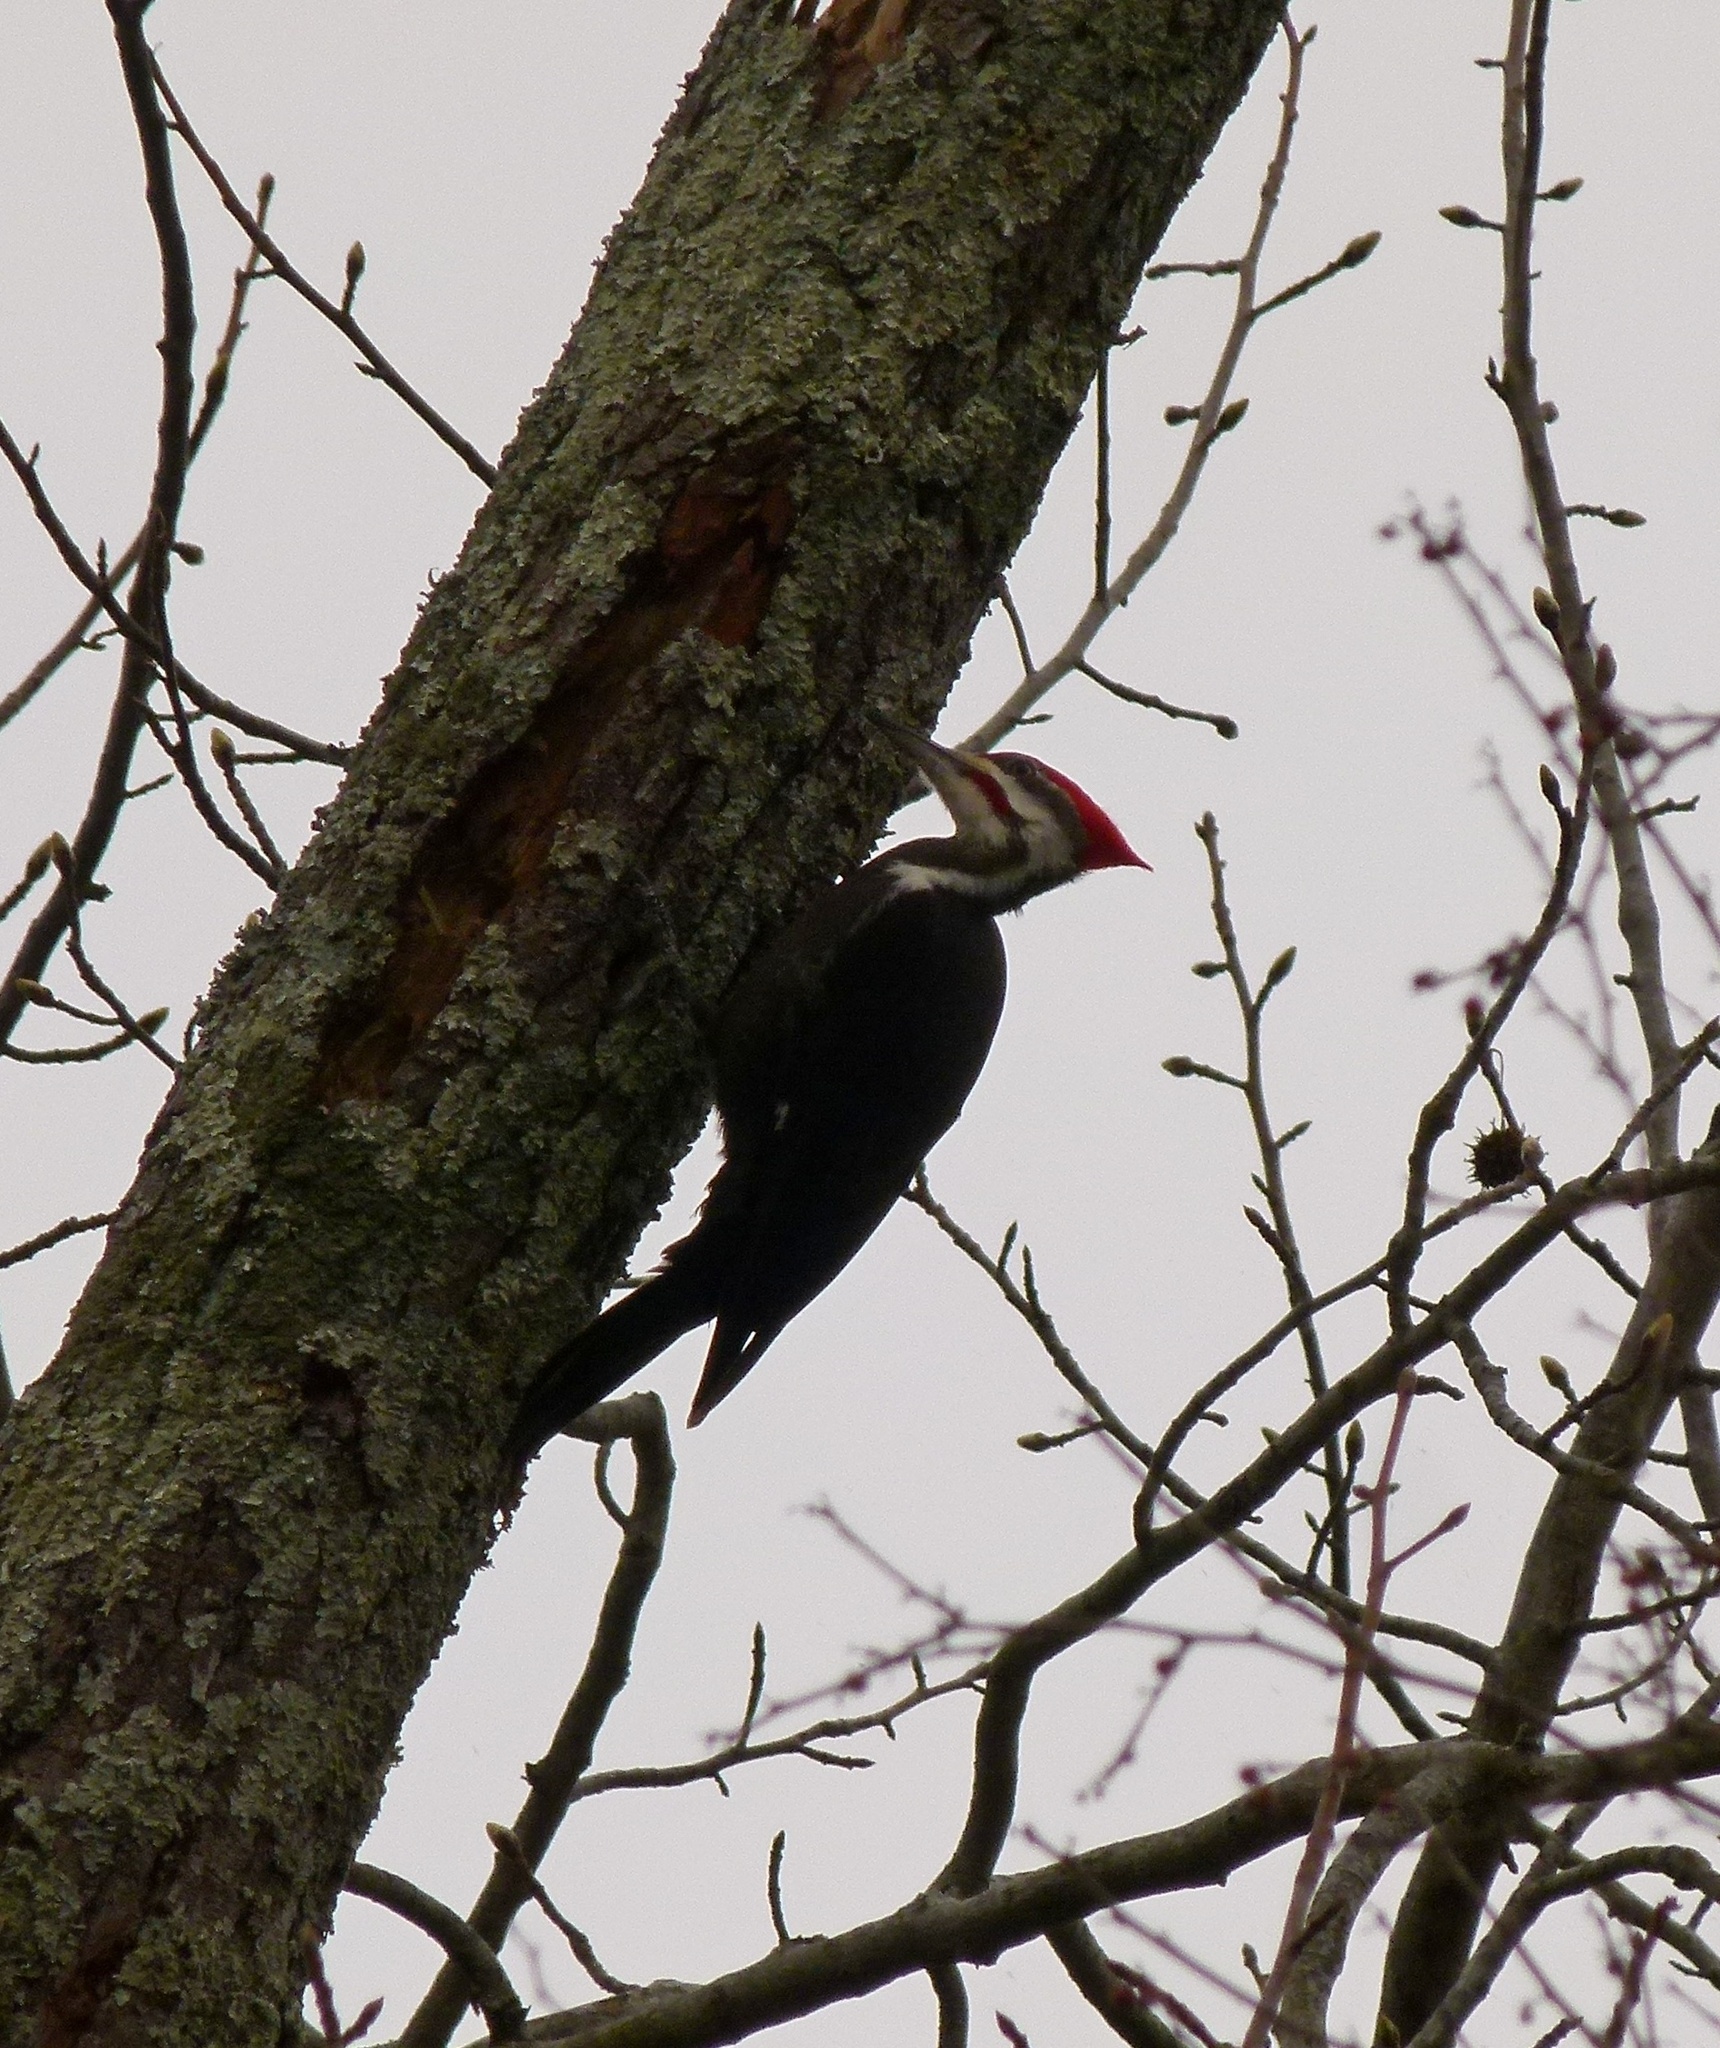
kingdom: Animalia
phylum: Chordata
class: Aves
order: Piciformes
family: Picidae
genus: Dryocopus
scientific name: Dryocopus pileatus
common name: Pileated woodpecker
